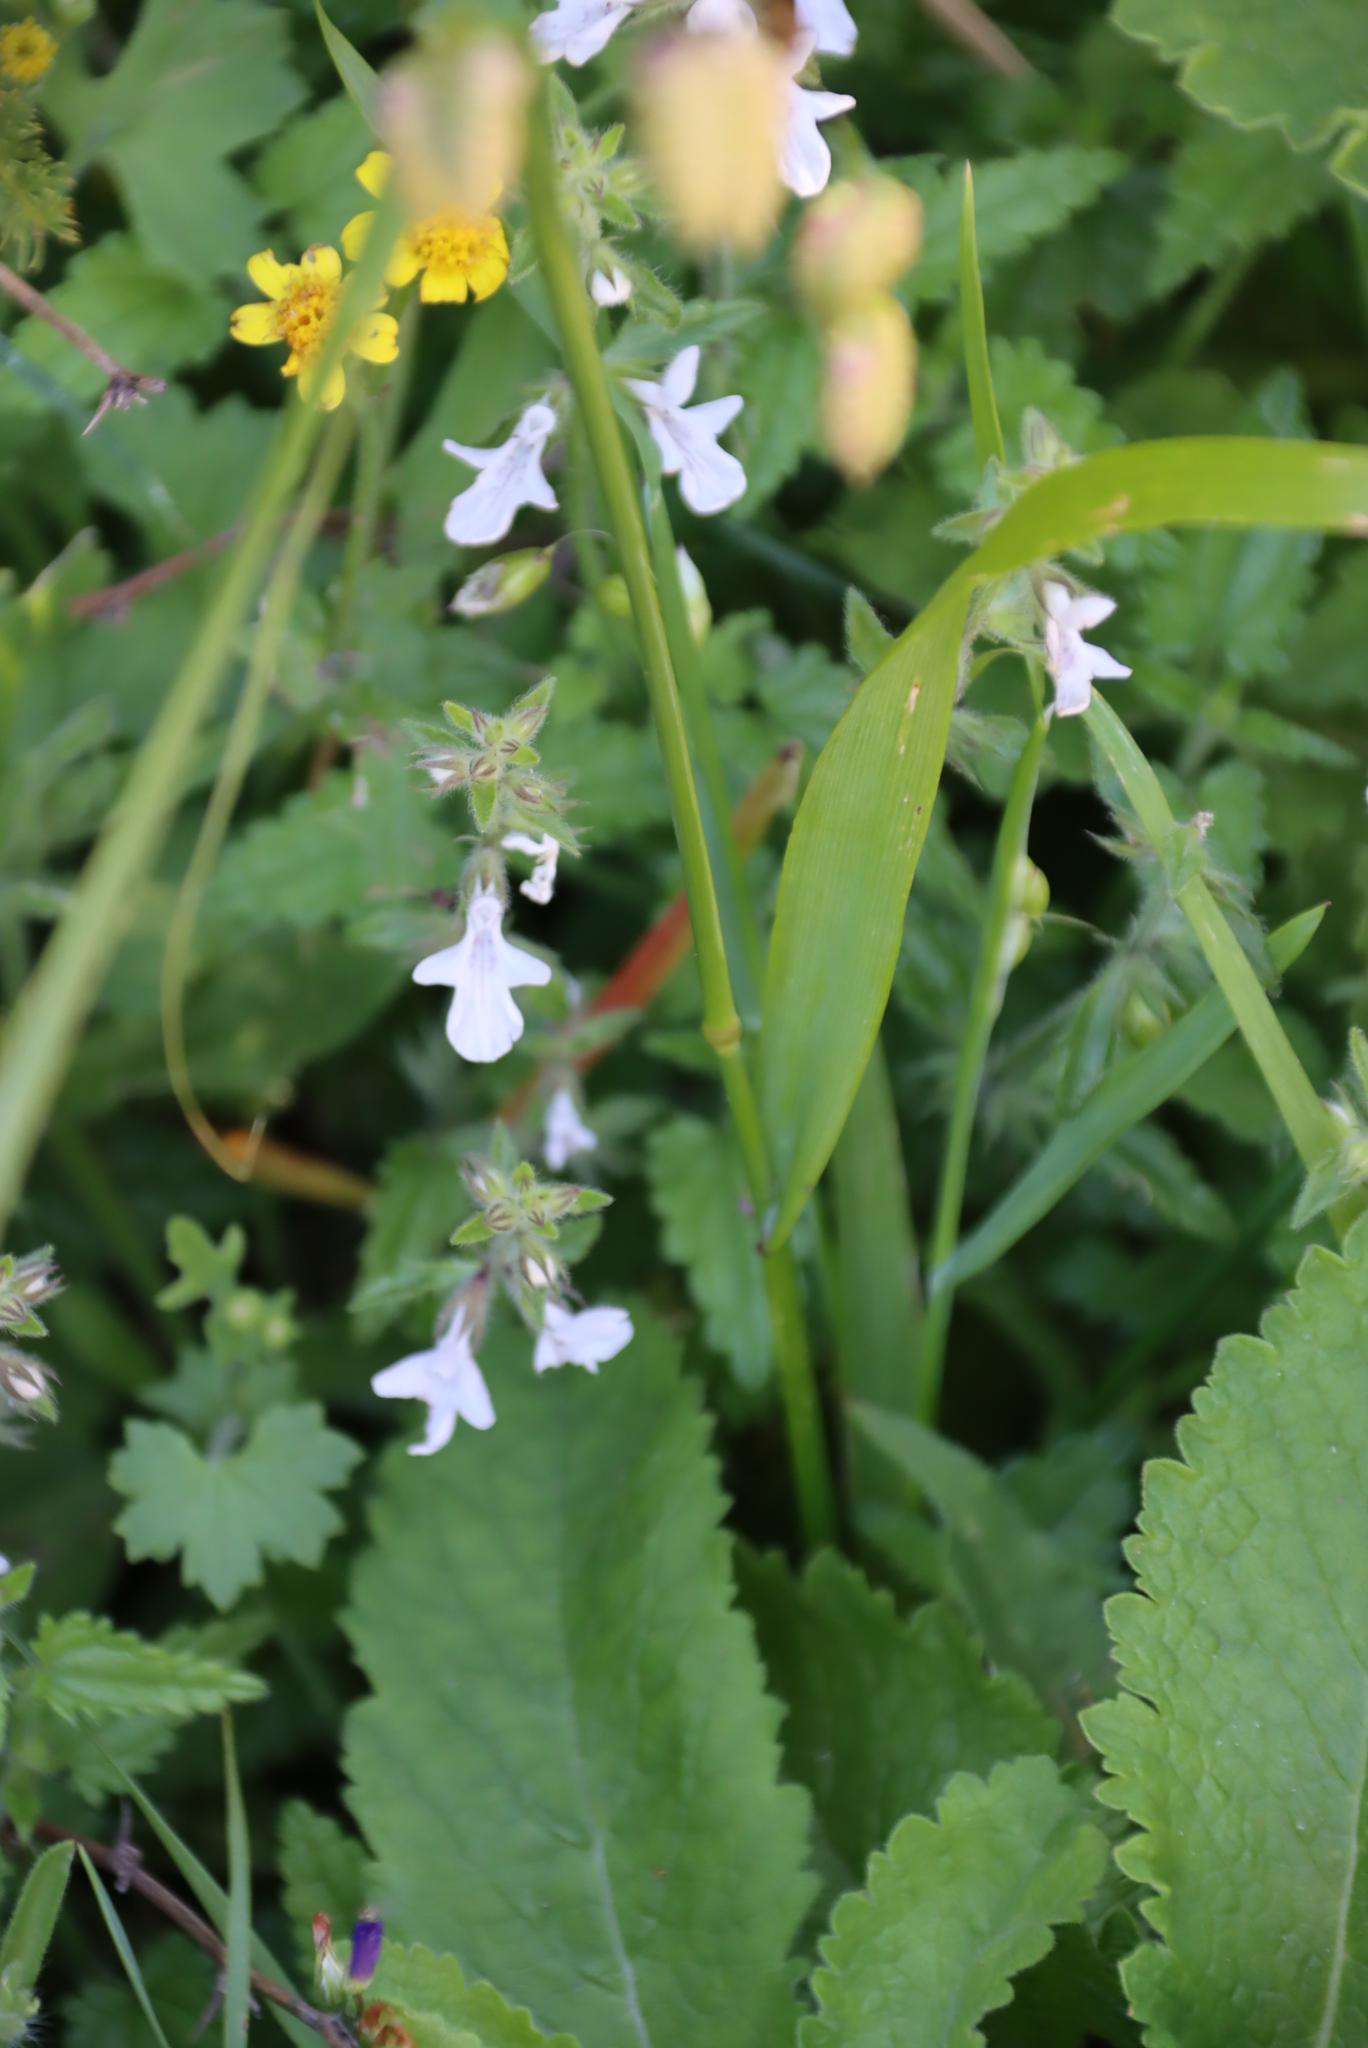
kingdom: Plantae
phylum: Tracheophyta
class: Magnoliopsida
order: Lamiales
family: Lamiaceae
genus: Stachys
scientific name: Stachys aethiopica
